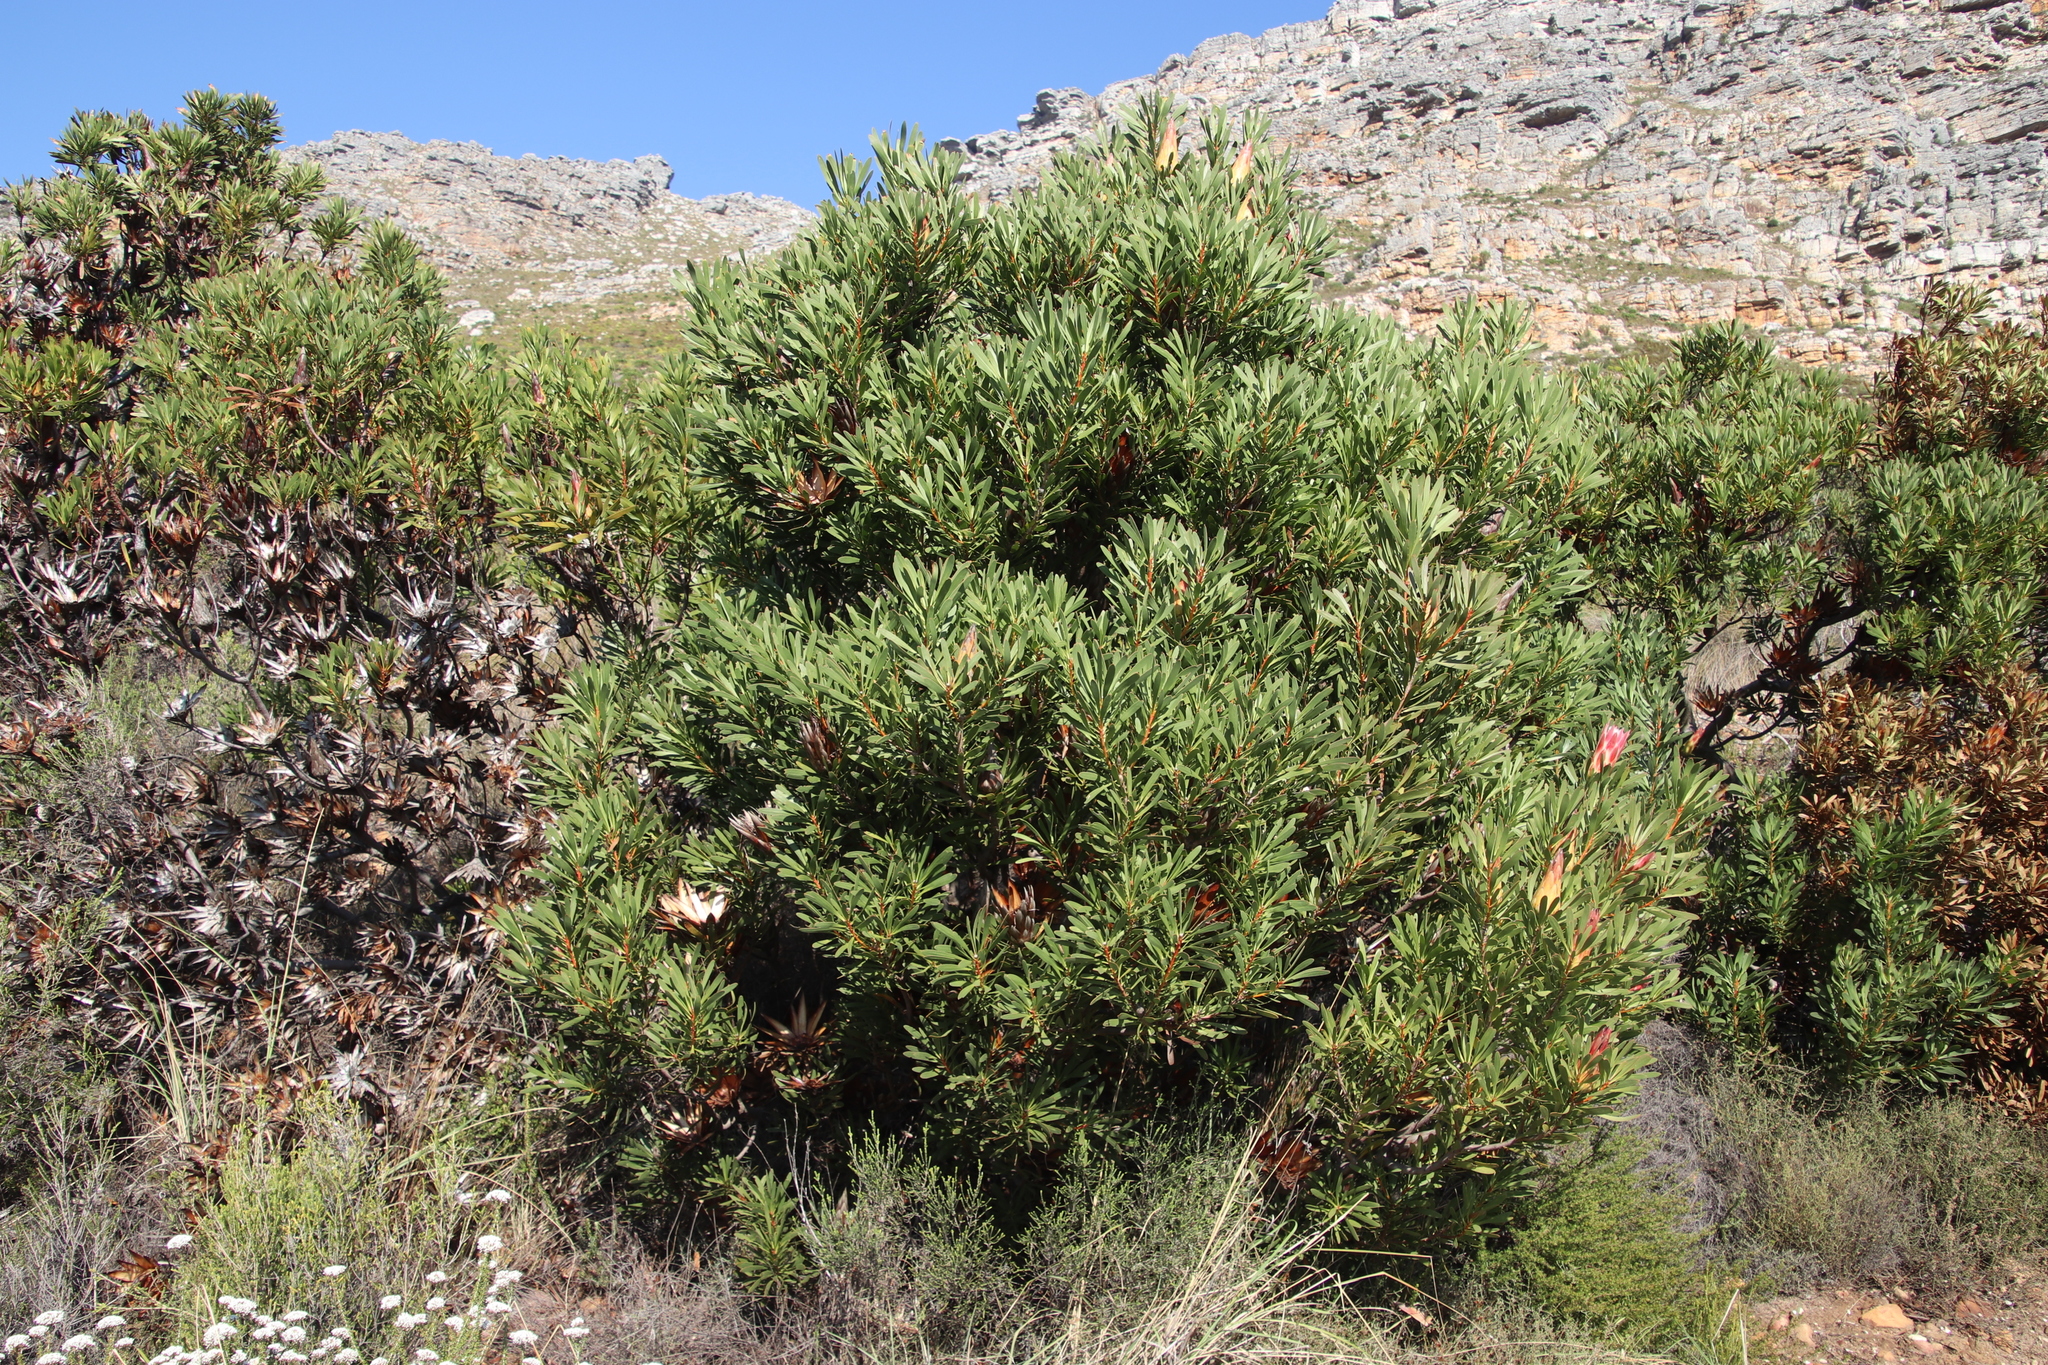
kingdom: Plantae
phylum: Tracheophyta
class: Magnoliopsida
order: Proteales
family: Proteaceae
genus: Protea
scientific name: Protea repens
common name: Sugarbush
